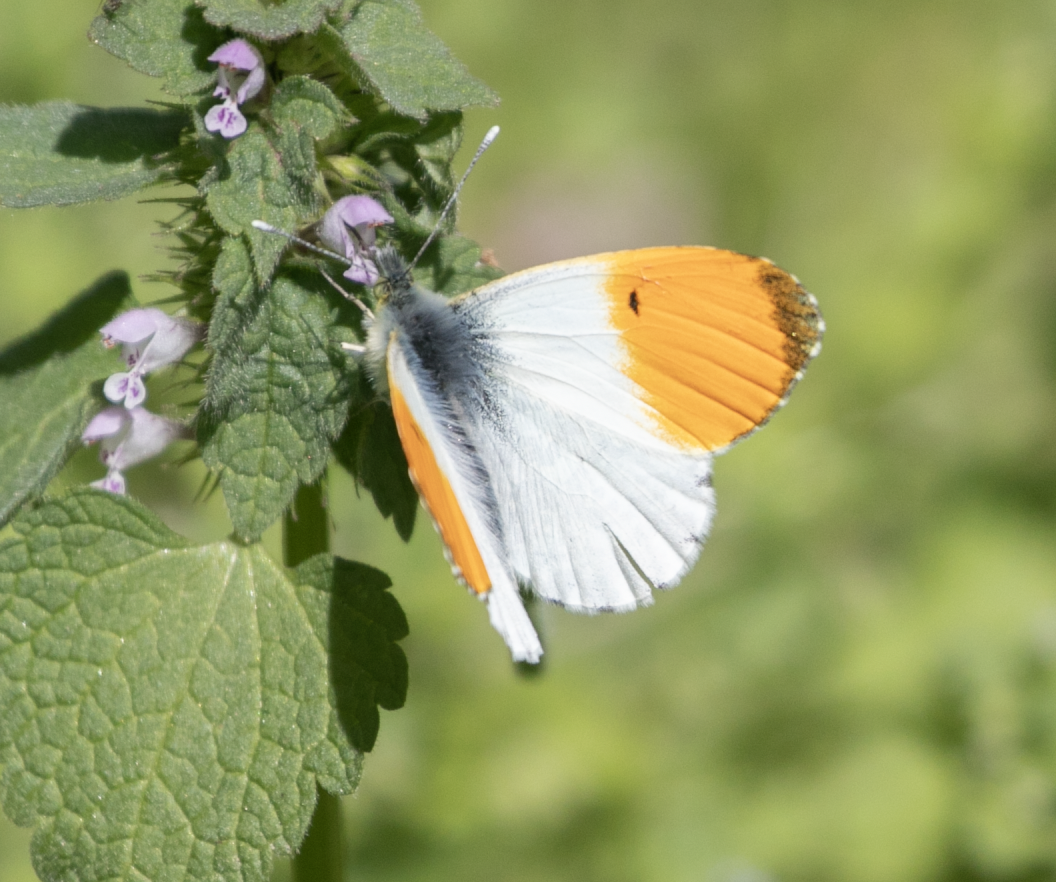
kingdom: Animalia
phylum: Arthropoda
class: Insecta
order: Lepidoptera
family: Pieridae
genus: Anthocharis
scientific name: Anthocharis cardamines
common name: Orange-tip
